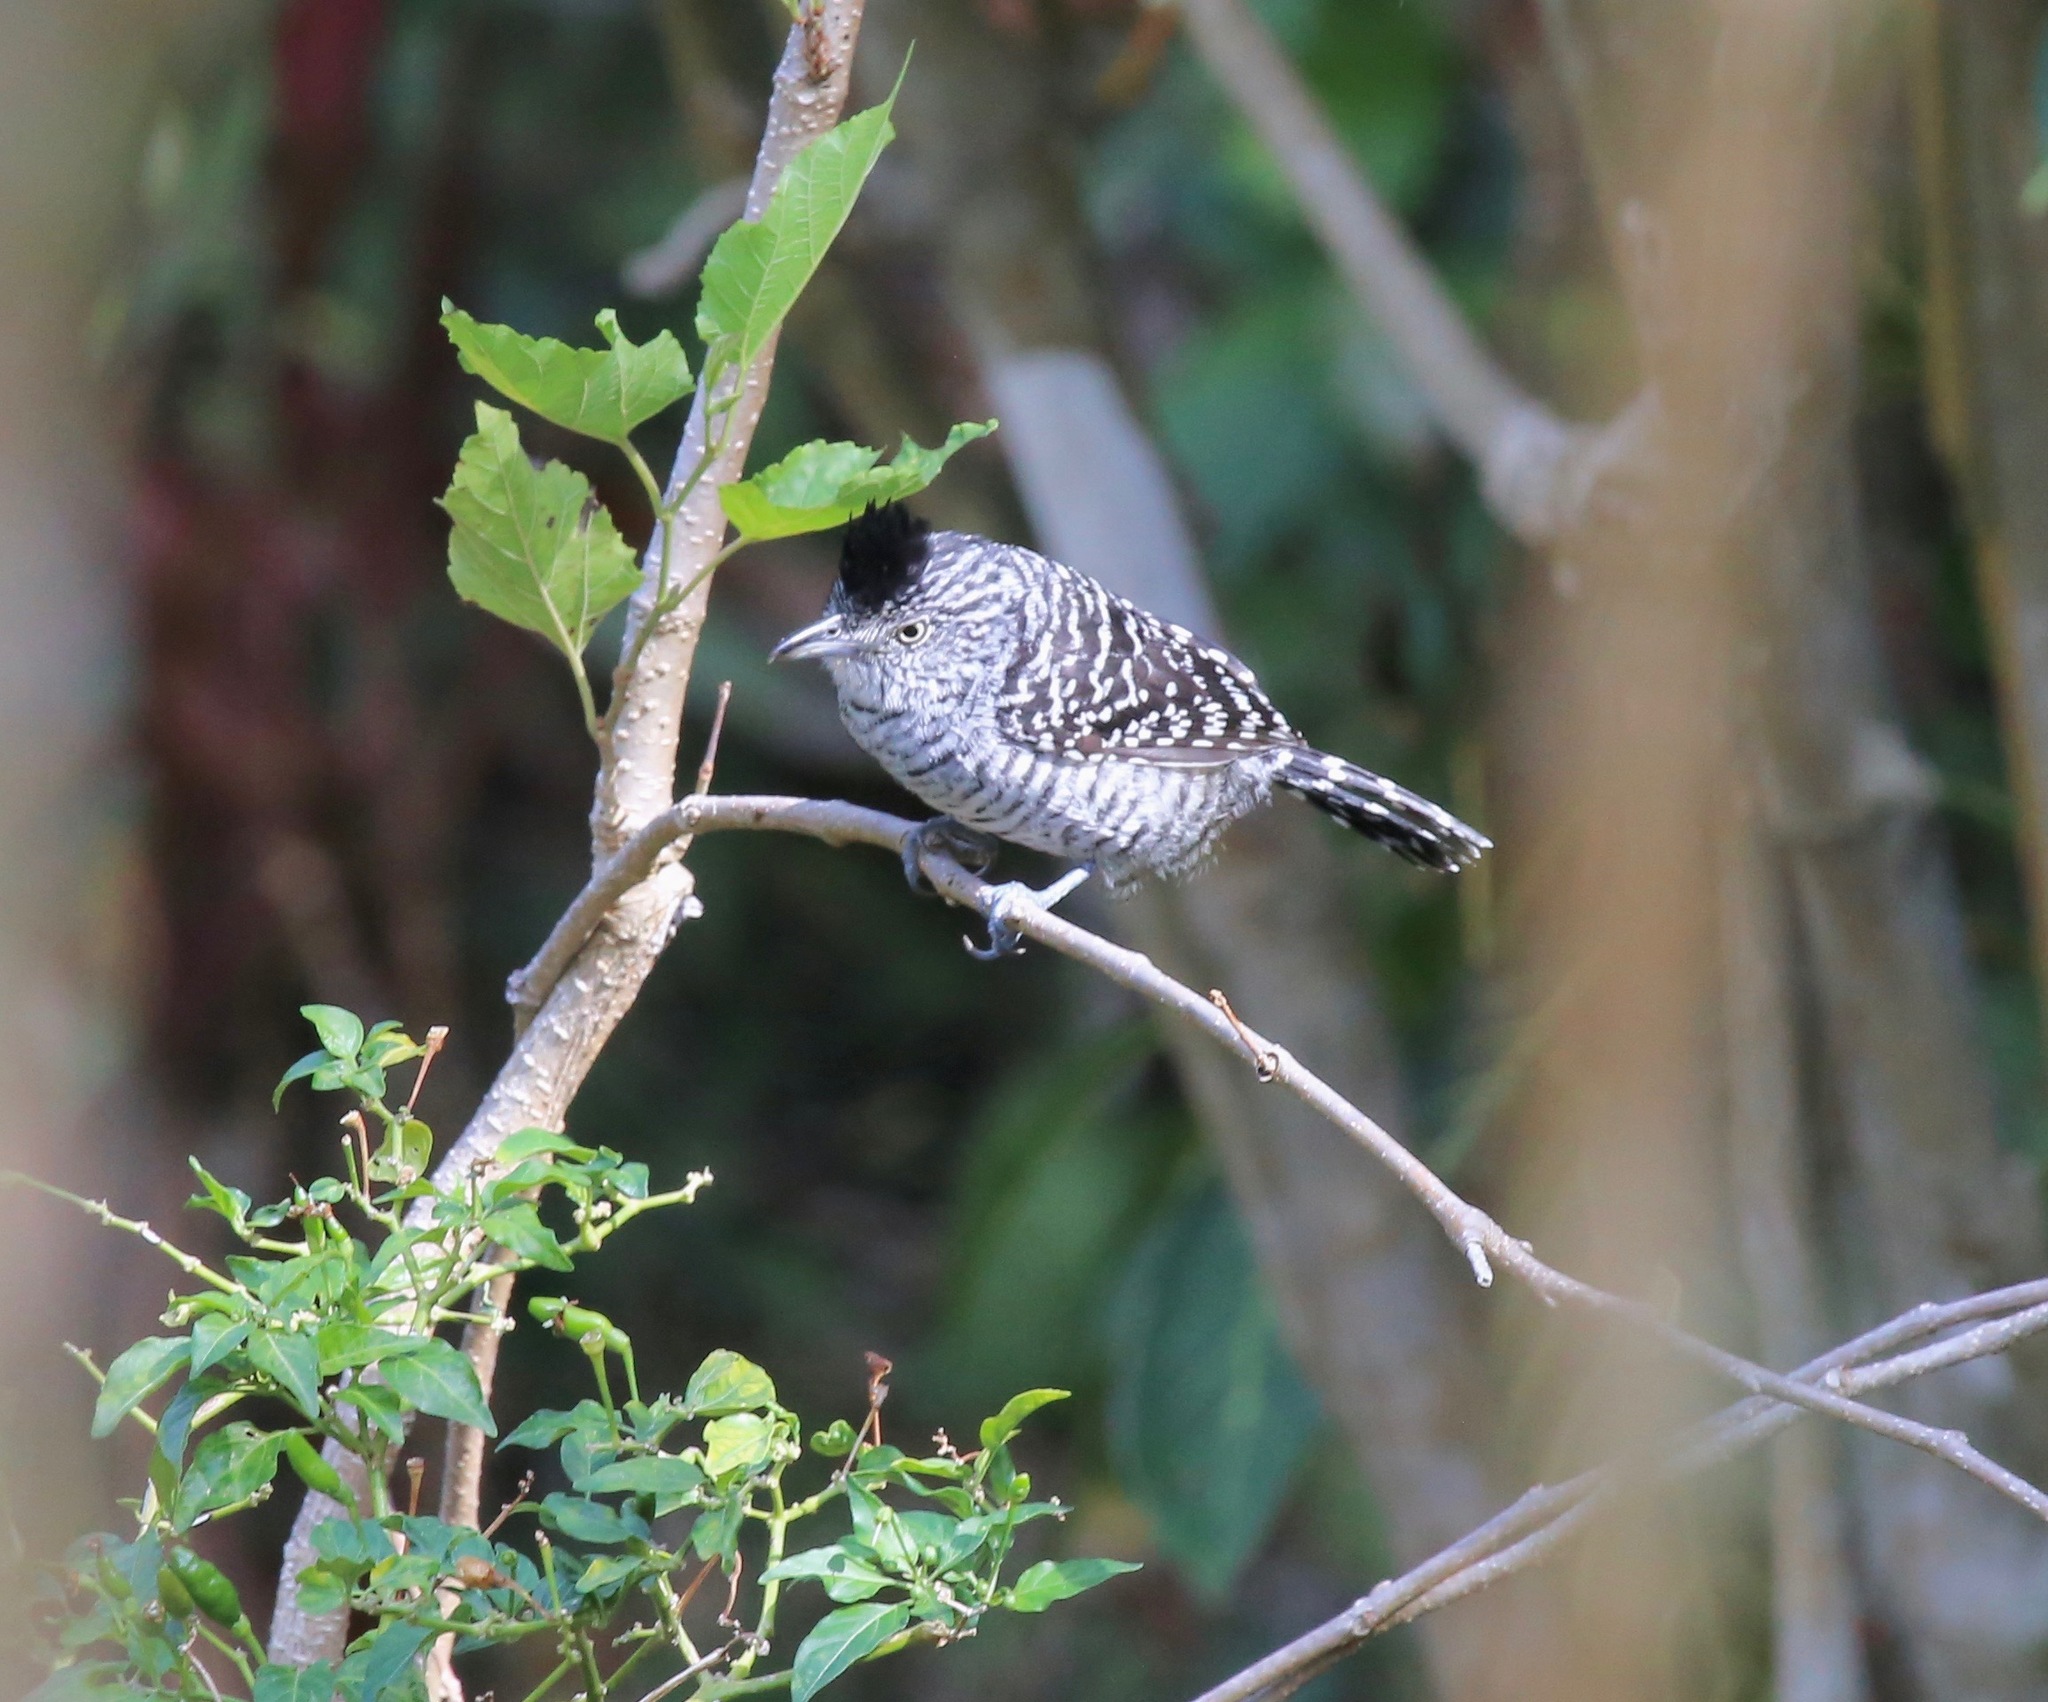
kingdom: Animalia
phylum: Chordata
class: Aves
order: Passeriformes
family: Thamnophilidae
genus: Thamnophilus
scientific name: Thamnophilus doliatus
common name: Barred antshrike
